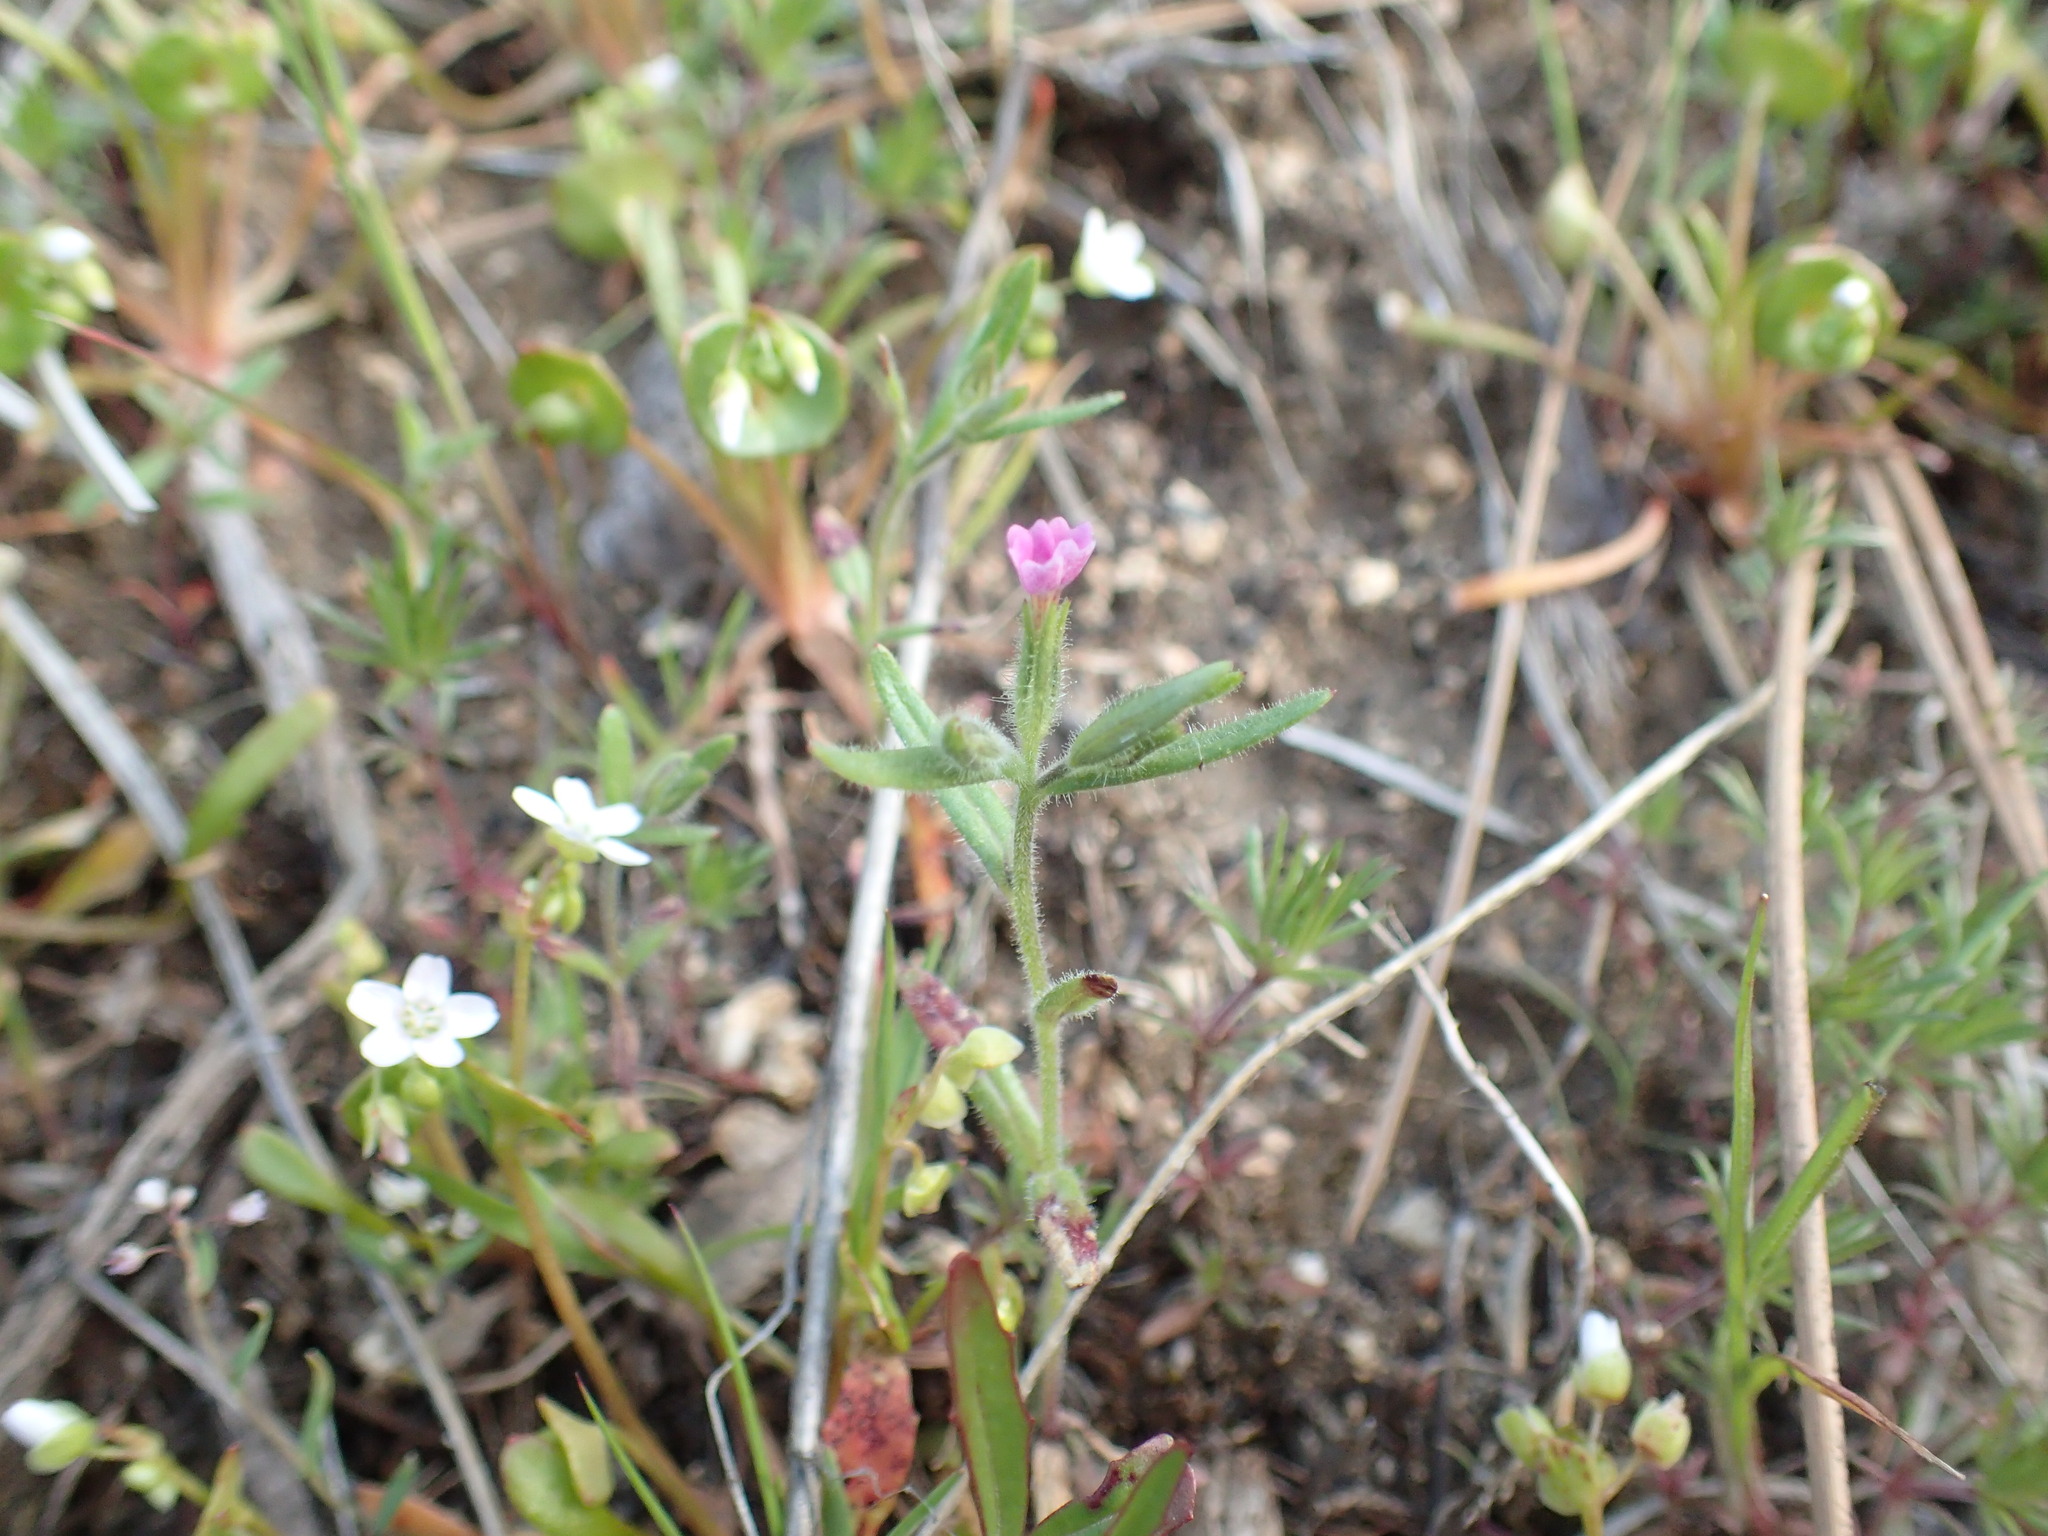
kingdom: Plantae
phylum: Tracheophyta
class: Magnoliopsida
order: Ericales
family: Polemoniaceae
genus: Phlox
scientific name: Phlox gracilis
